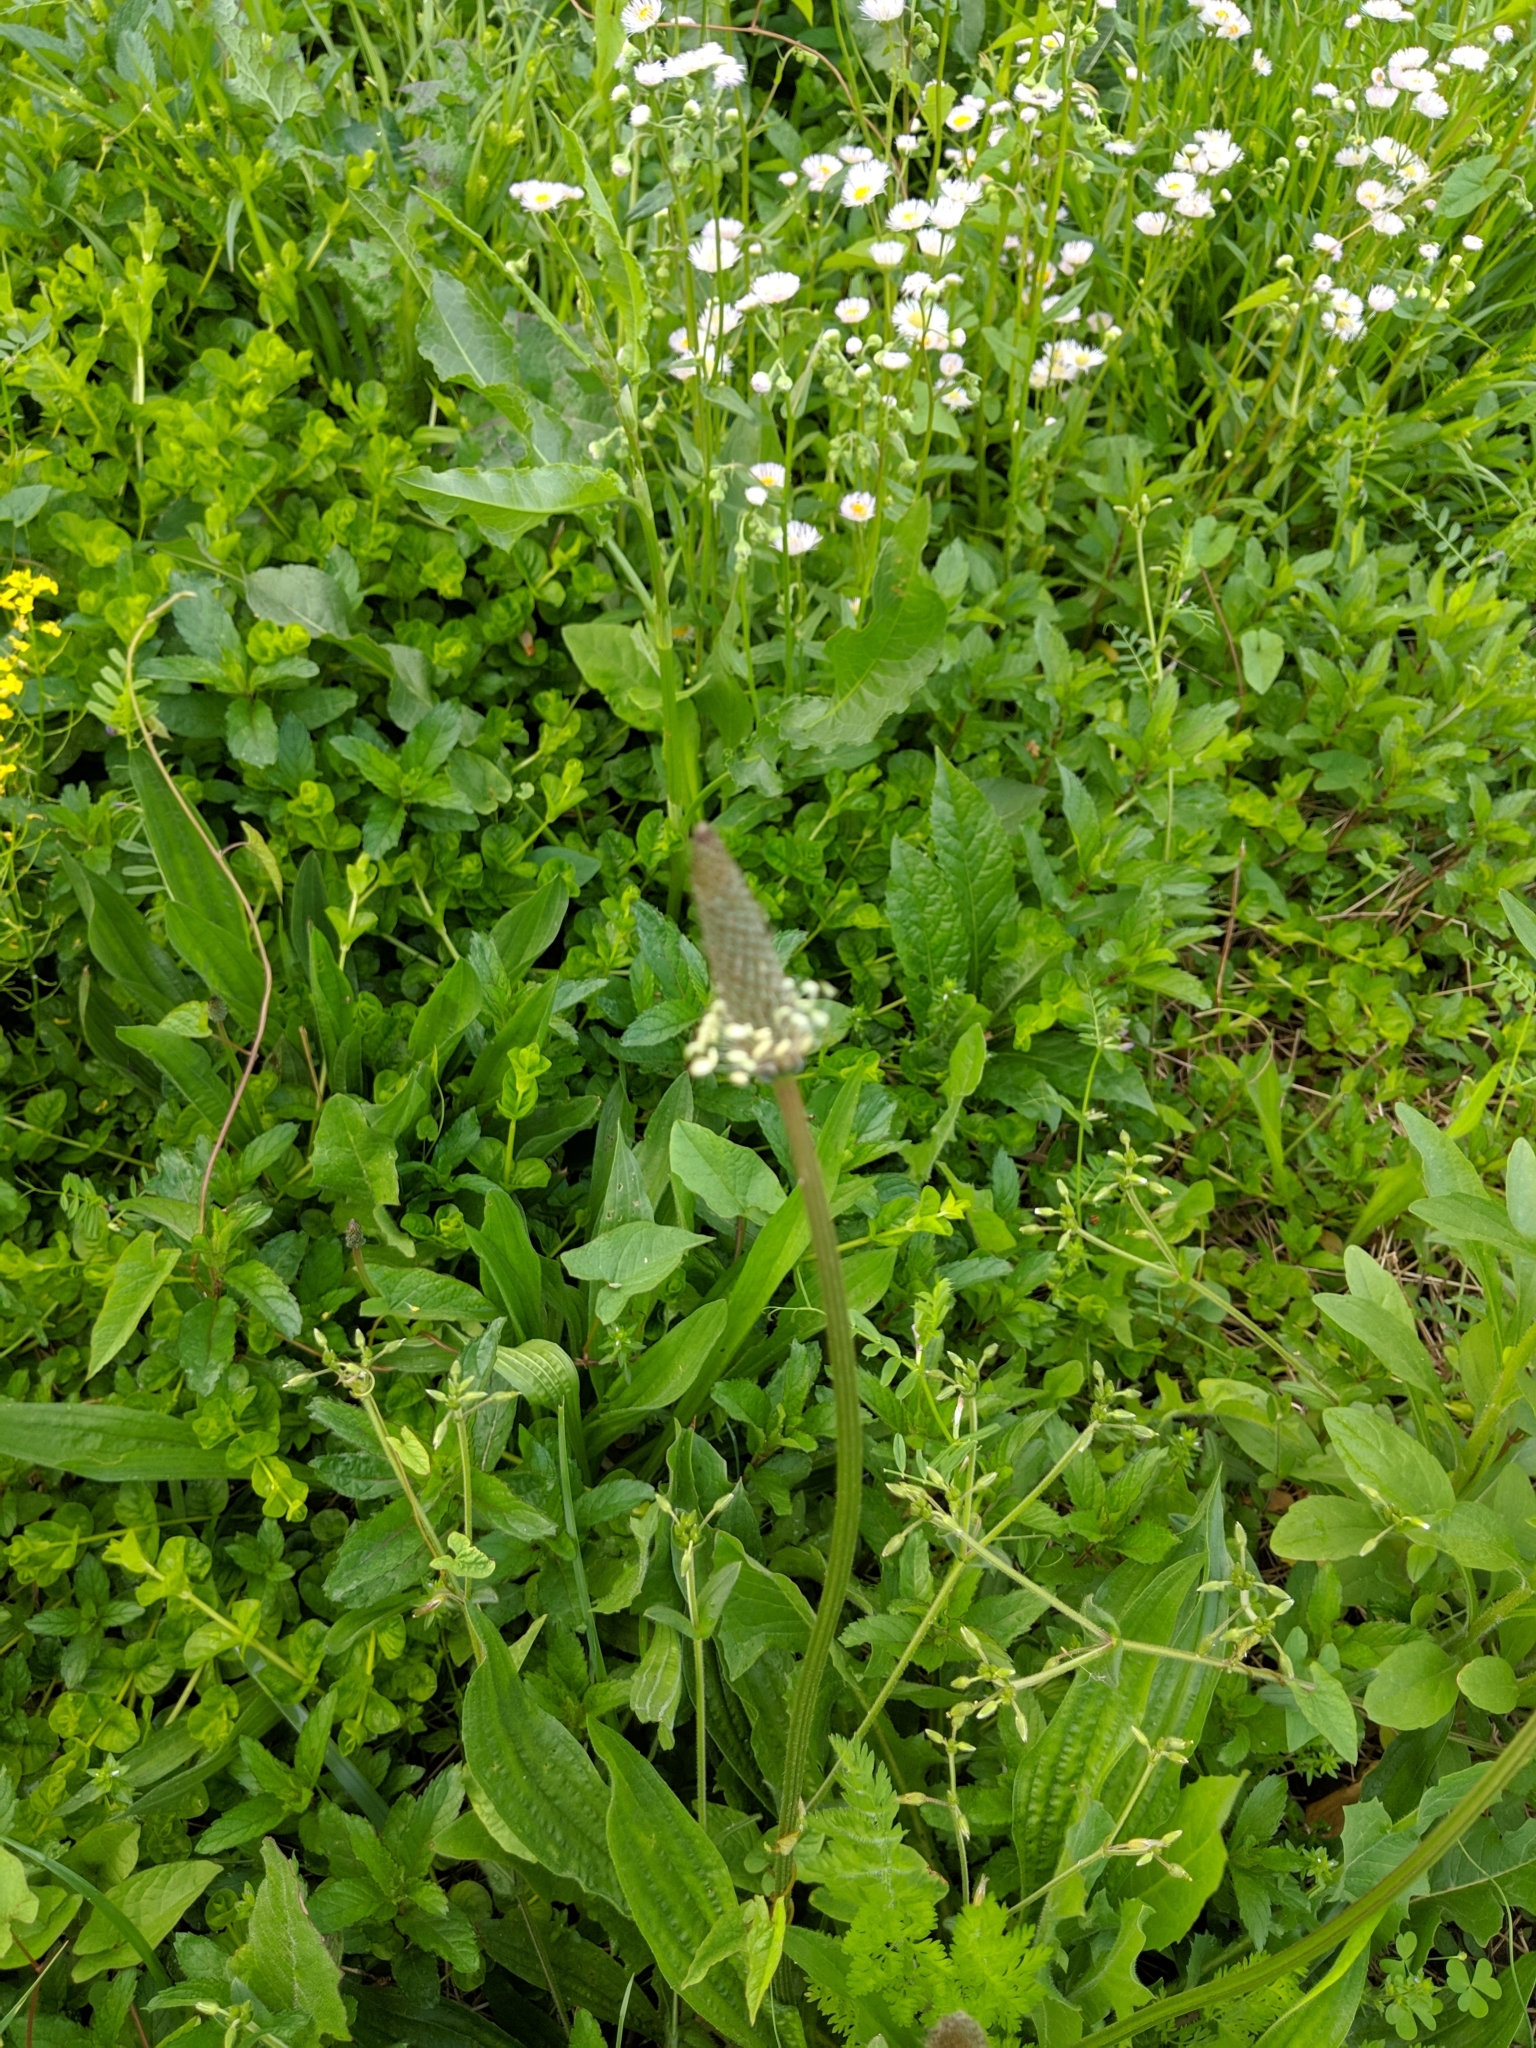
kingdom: Plantae
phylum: Tracheophyta
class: Magnoliopsida
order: Lamiales
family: Plantaginaceae
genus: Plantago
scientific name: Plantago lanceolata
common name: Ribwort plantain
